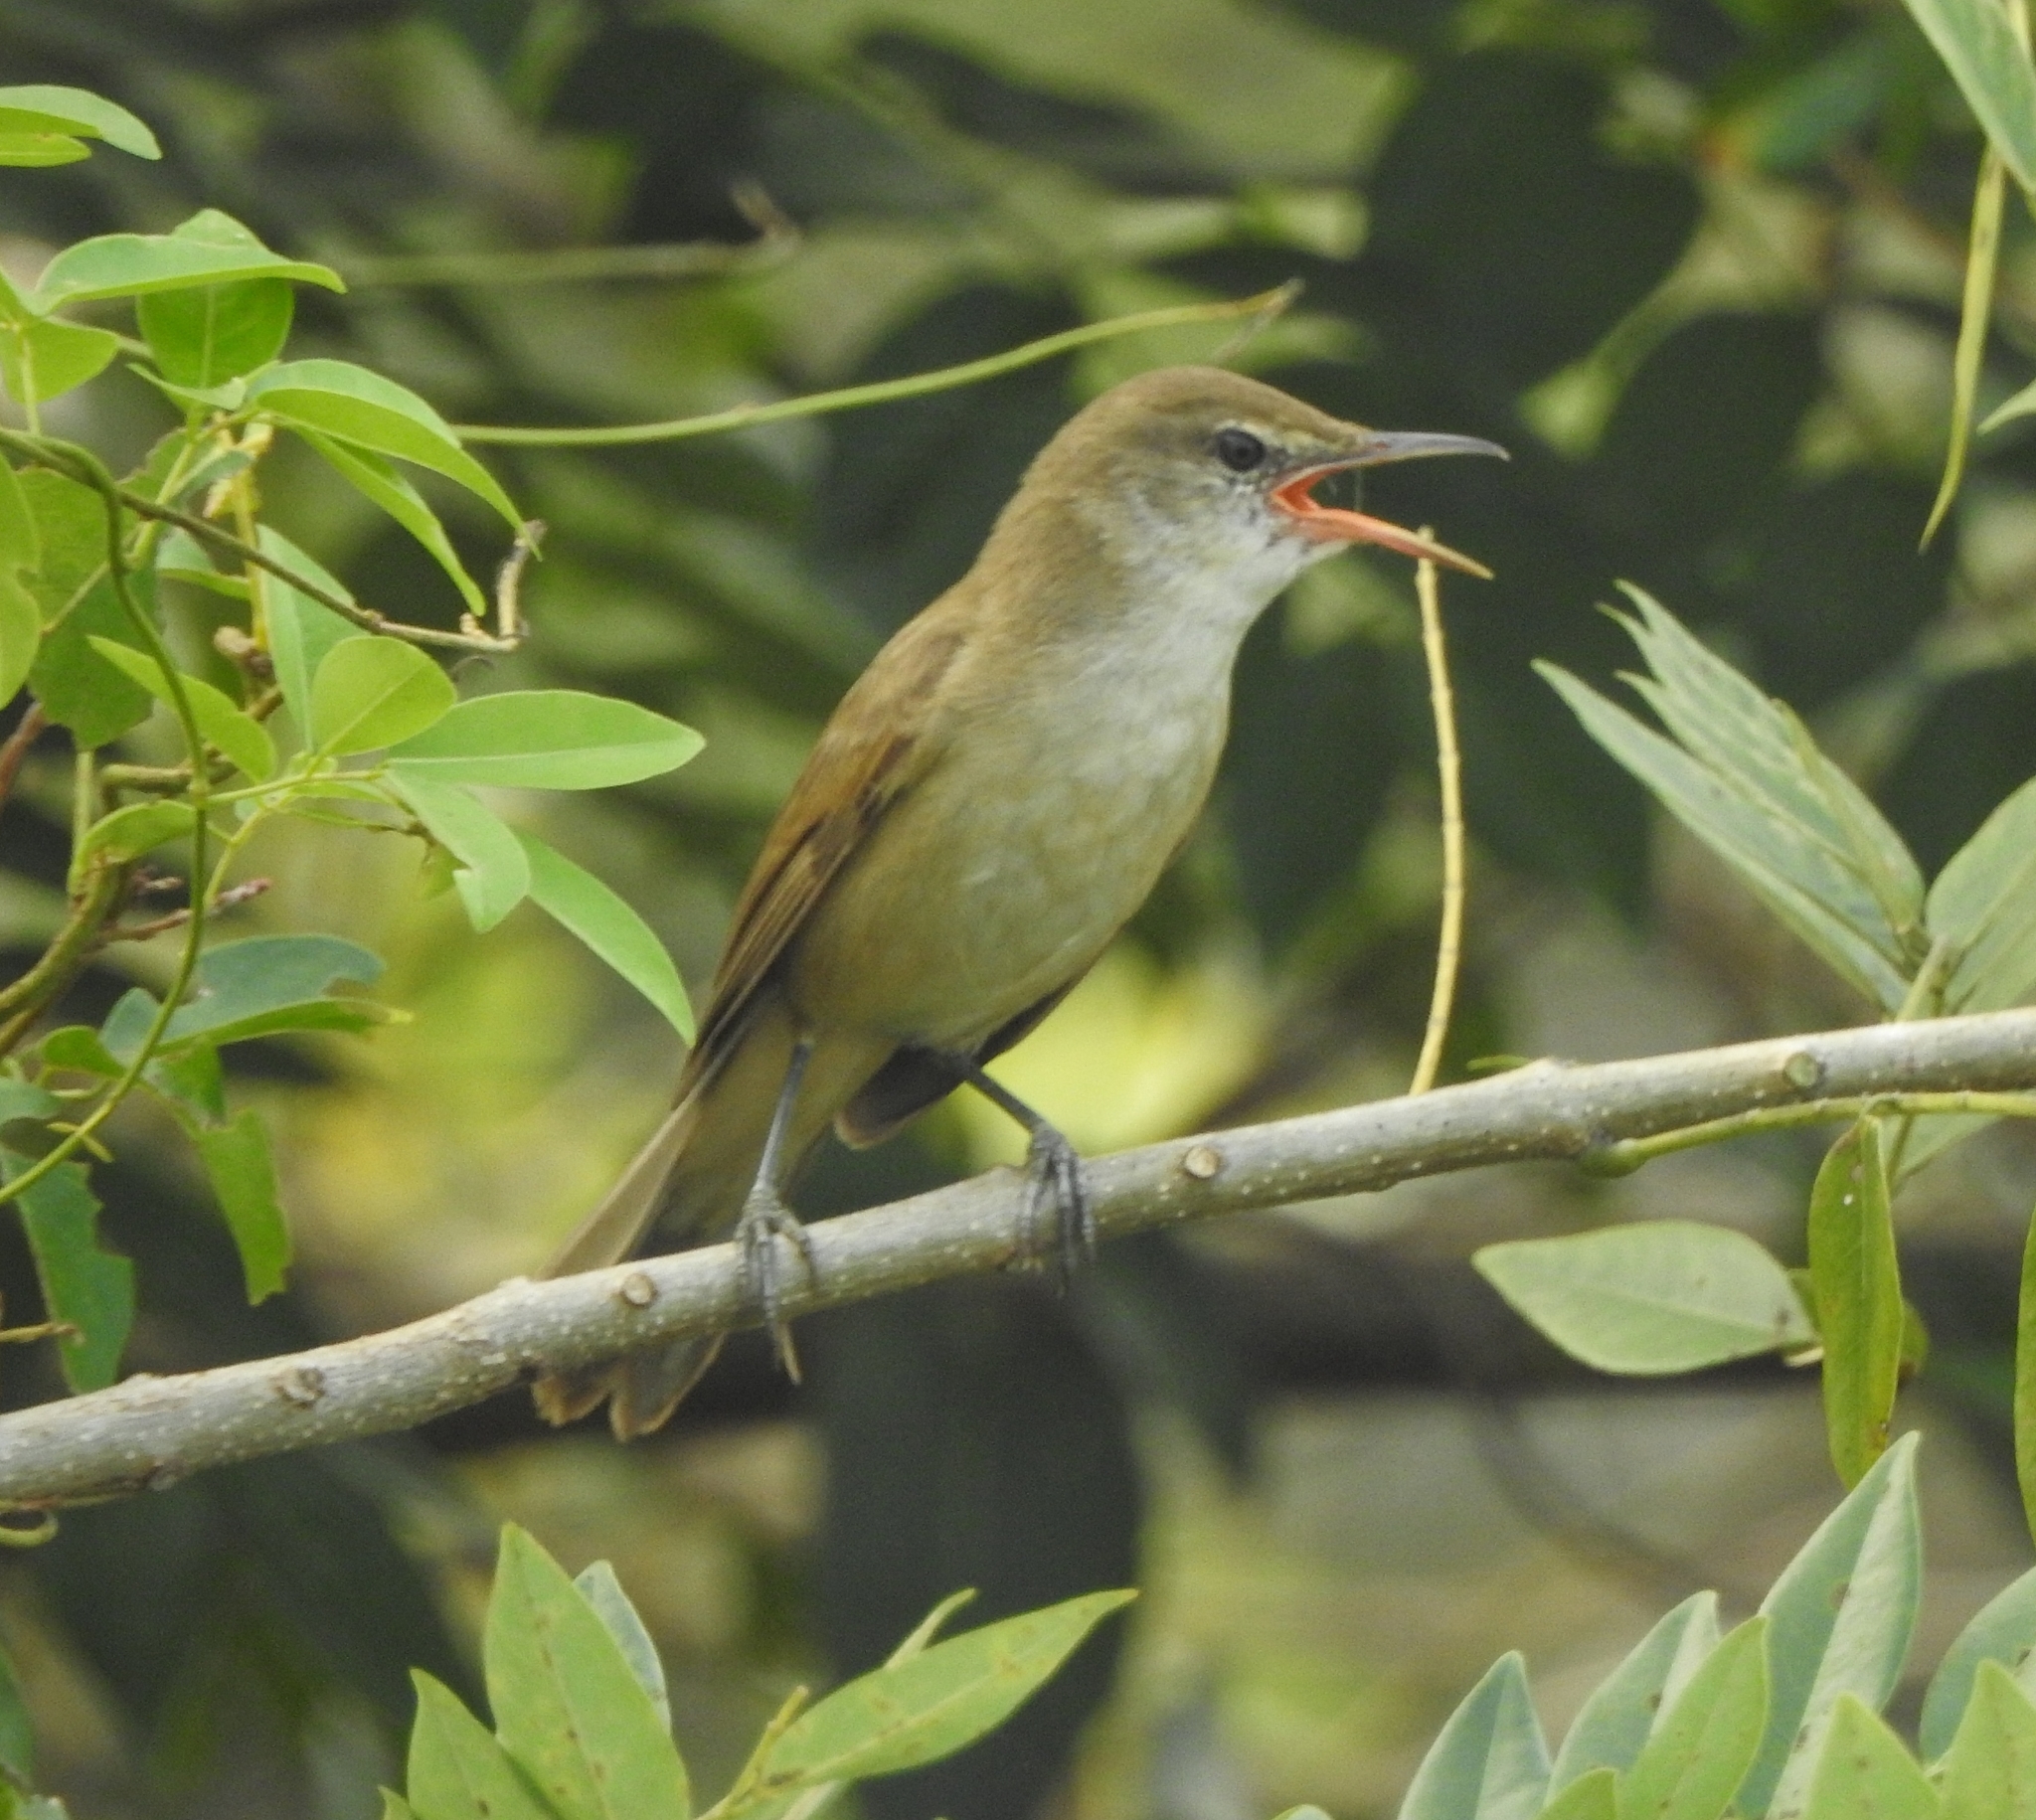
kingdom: Animalia
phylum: Chordata
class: Aves
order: Passeriformes
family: Acrocephalidae
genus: Acrocephalus
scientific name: Acrocephalus stentoreus
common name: Clamorous reed warbler
